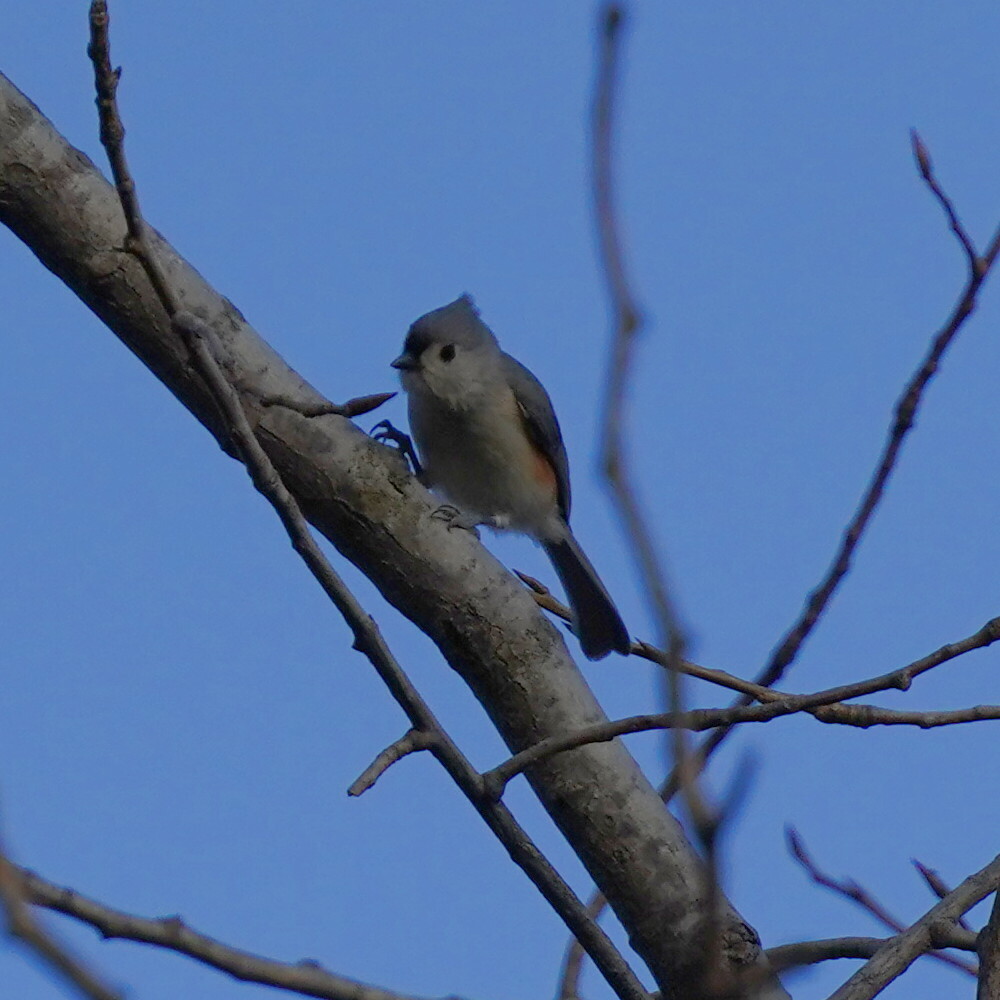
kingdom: Animalia
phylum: Chordata
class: Aves
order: Passeriformes
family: Paridae
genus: Baeolophus
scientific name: Baeolophus bicolor
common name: Tufted titmouse
